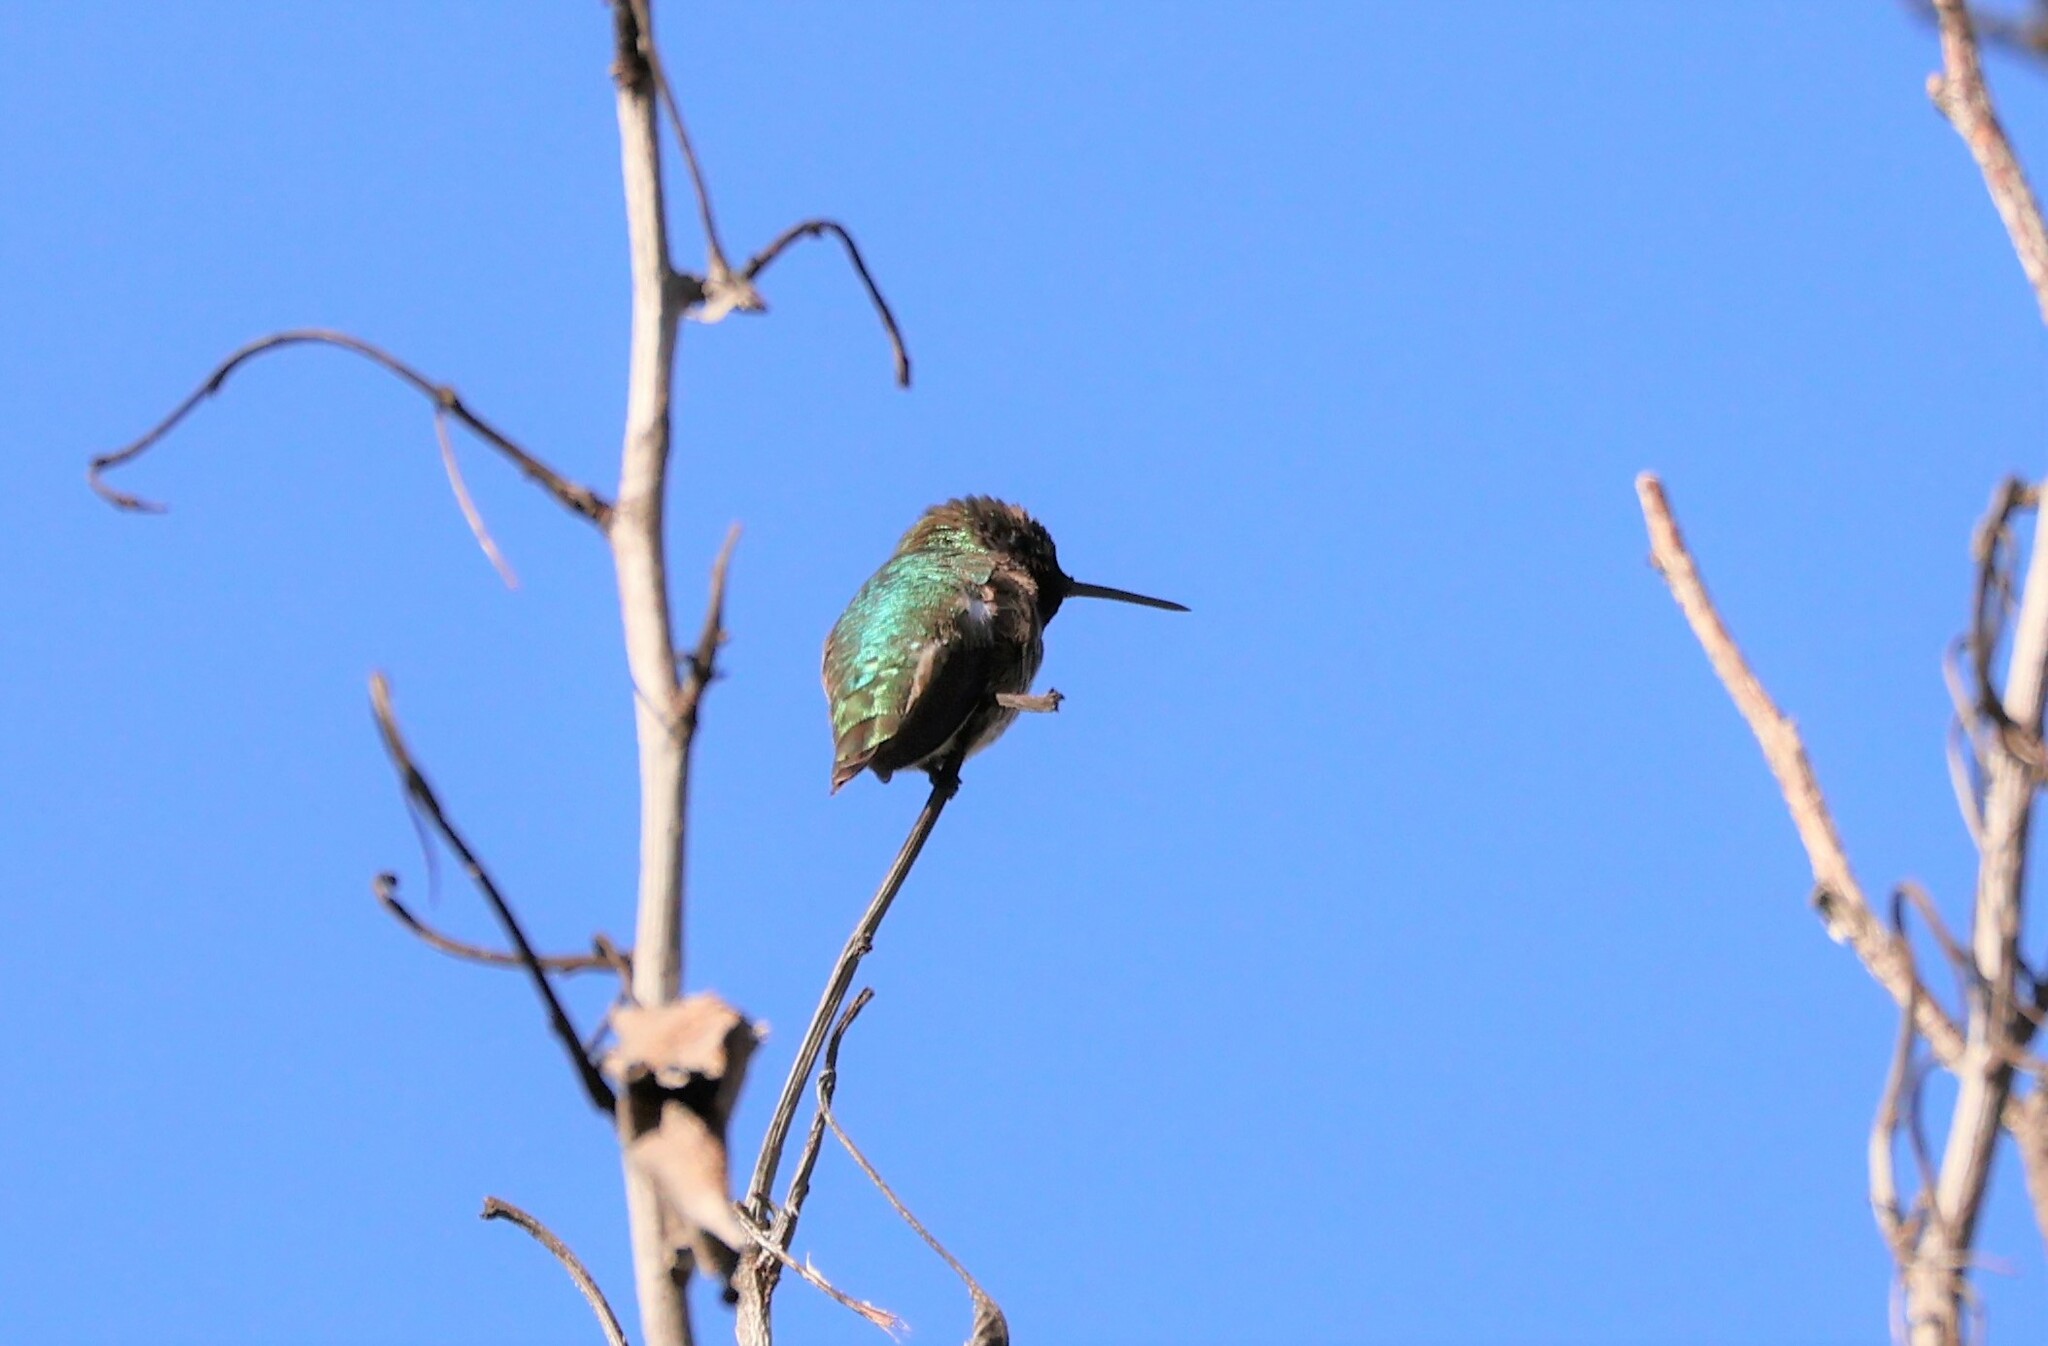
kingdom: Animalia
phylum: Chordata
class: Aves
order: Apodiformes
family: Trochilidae
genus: Calypte
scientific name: Calypte anna
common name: Anna's hummingbird
